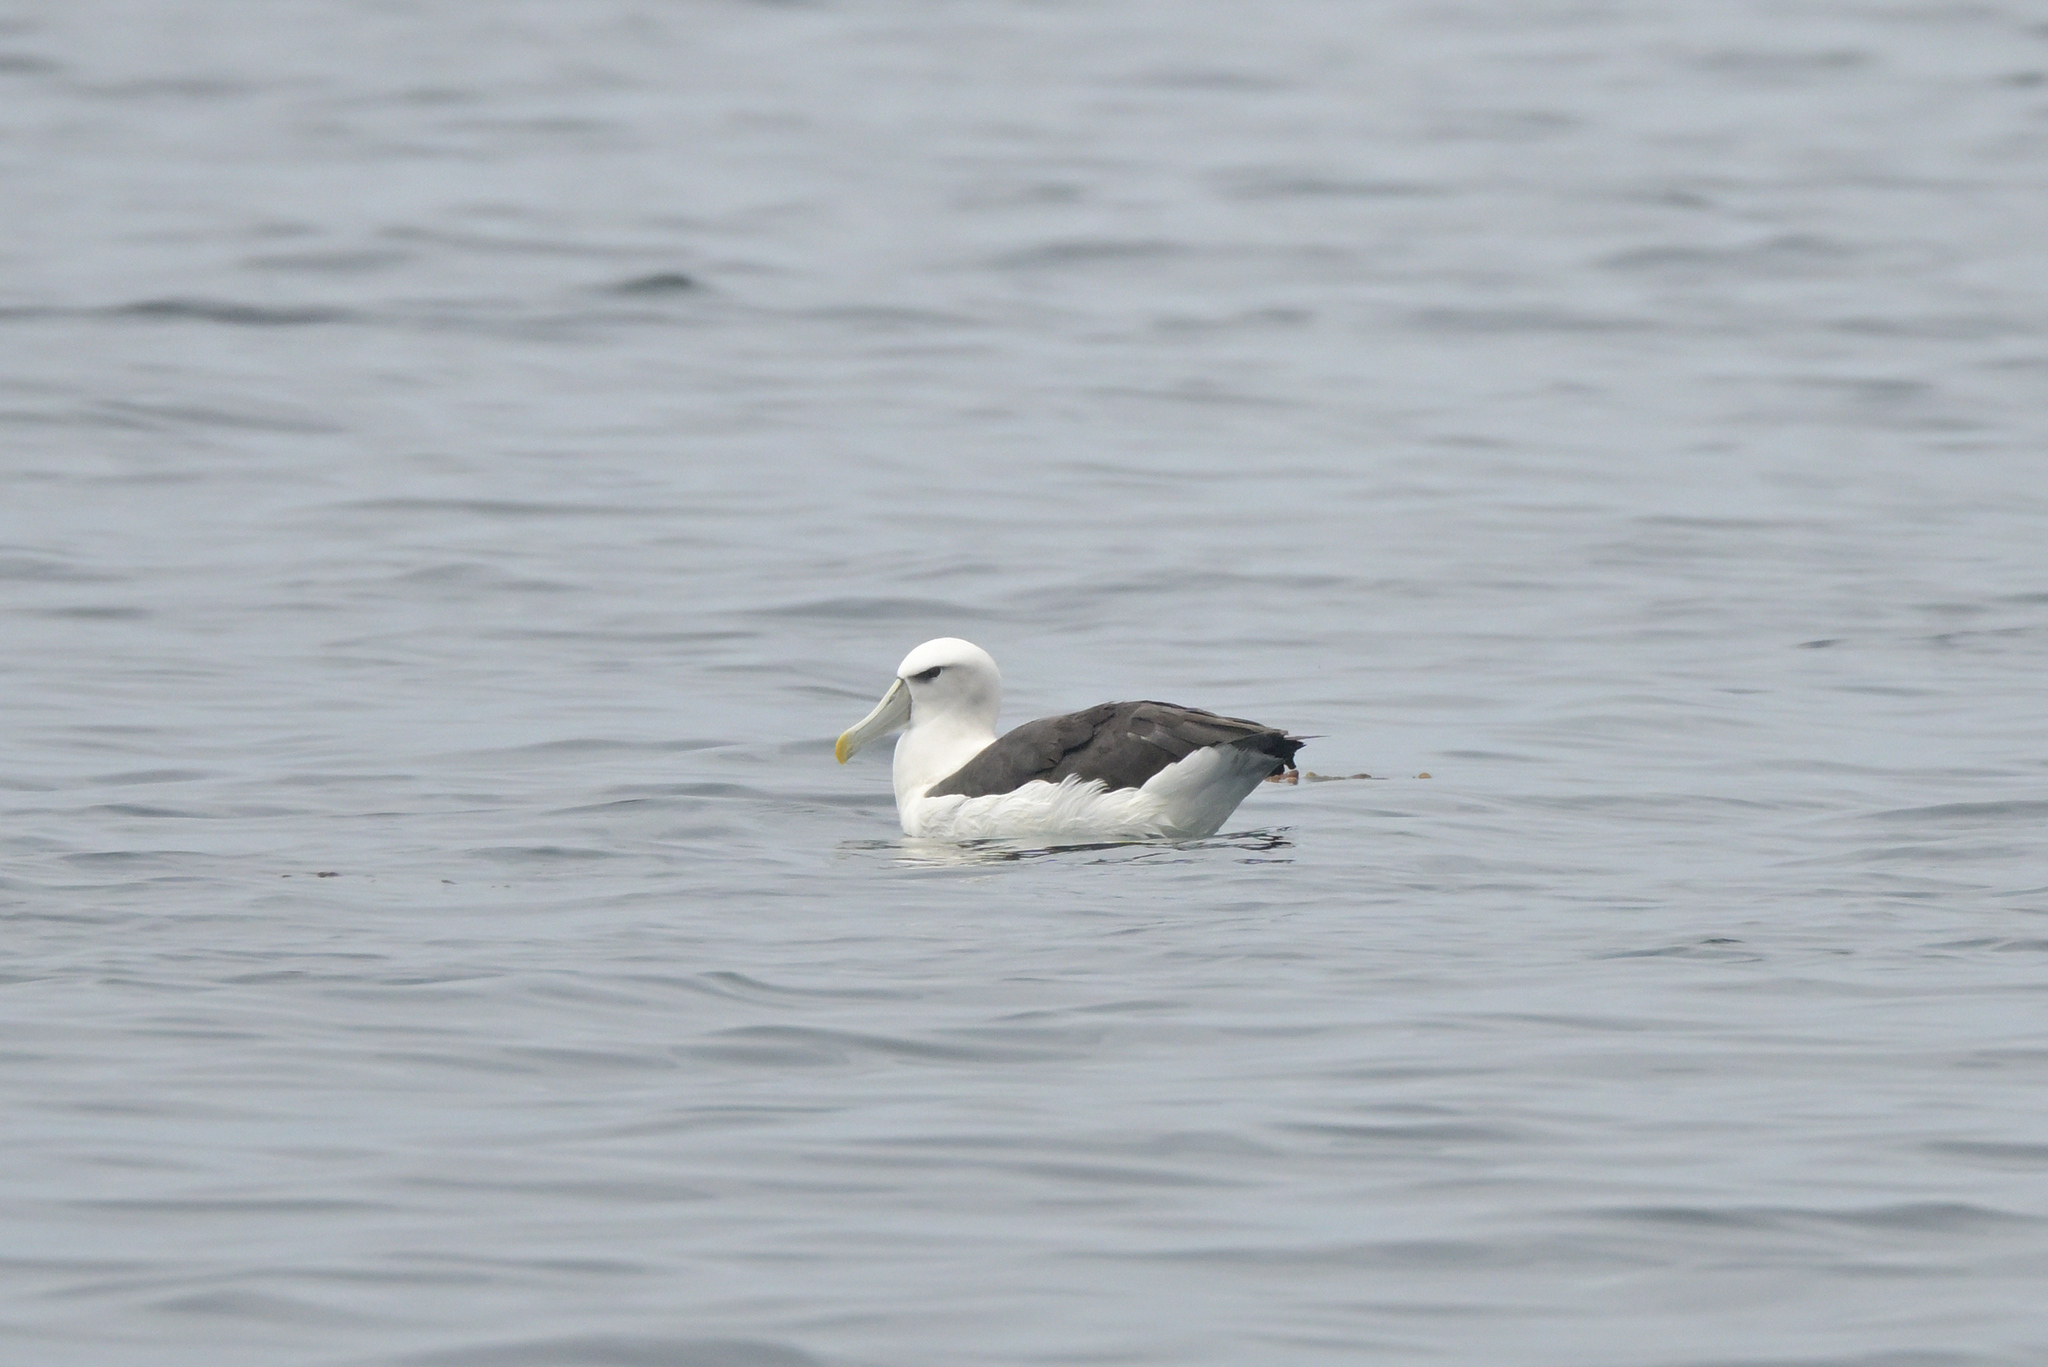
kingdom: Animalia
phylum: Chordata
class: Aves
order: Procellariiformes
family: Diomedeidae
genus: Thalassarche
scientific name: Thalassarche cauta
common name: Shy albatross
